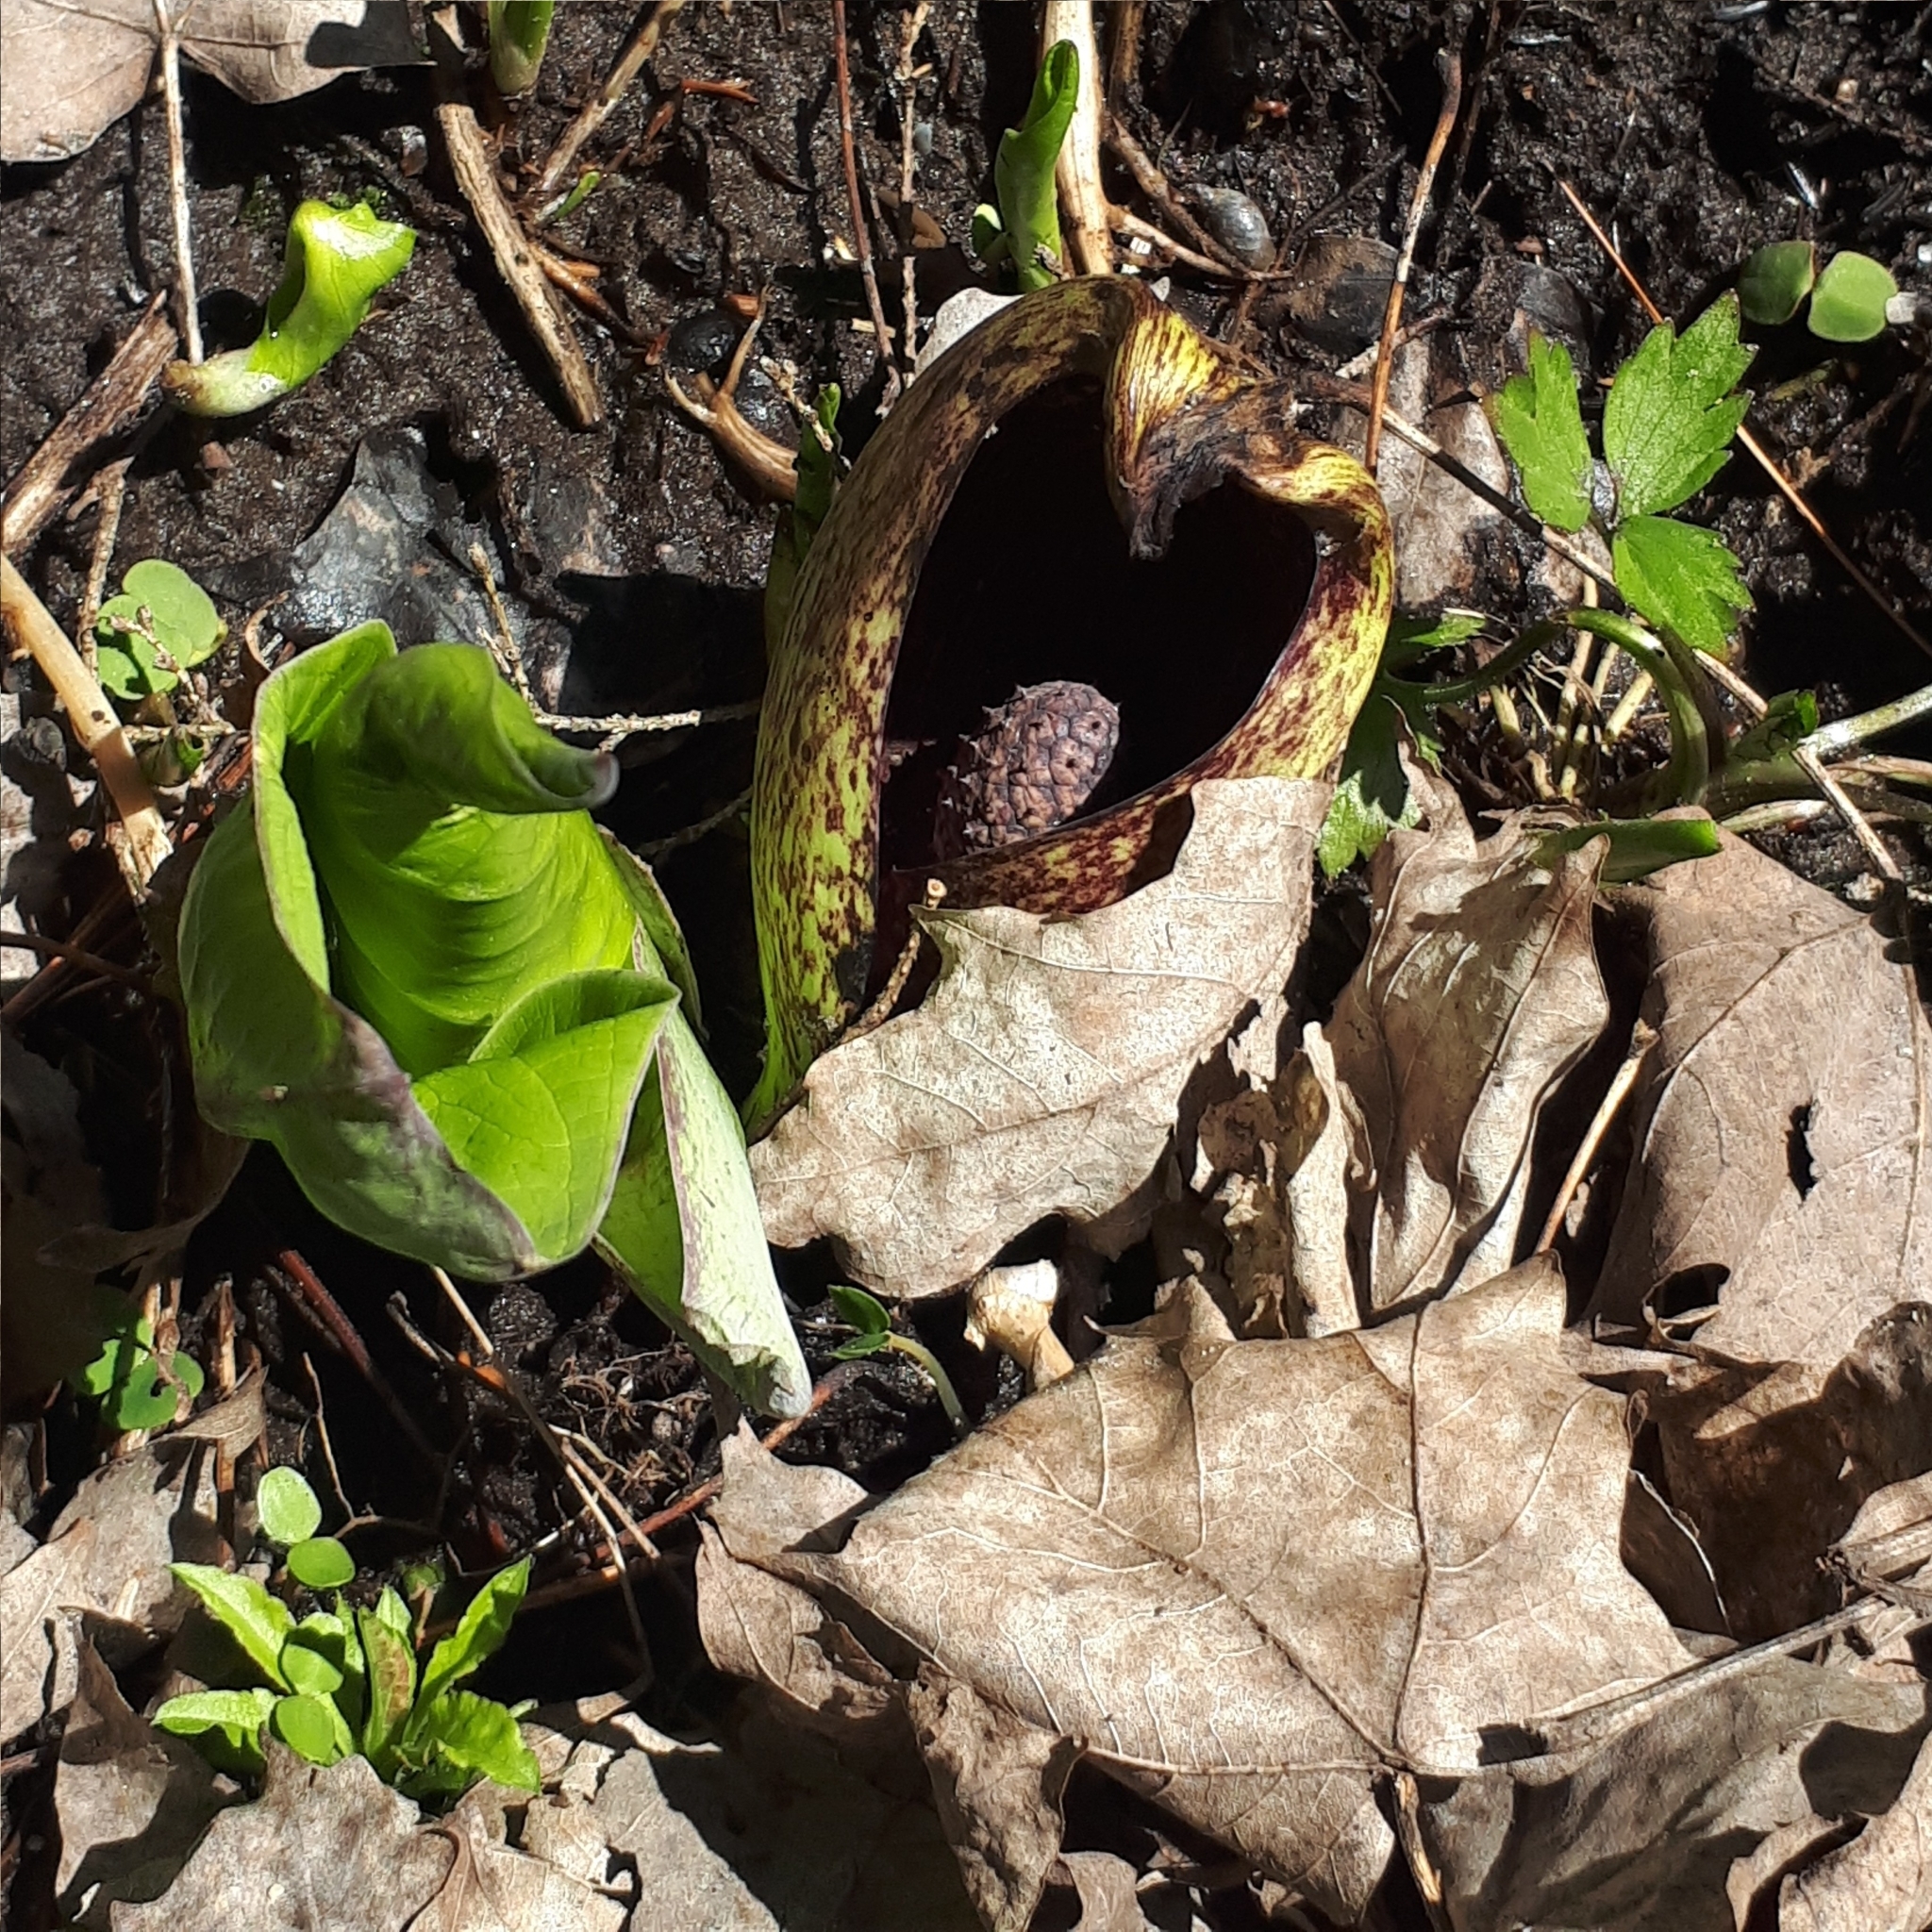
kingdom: Plantae
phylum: Tracheophyta
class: Liliopsida
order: Alismatales
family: Araceae
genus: Symplocarpus
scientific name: Symplocarpus foetidus
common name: Eastern skunk cabbage
